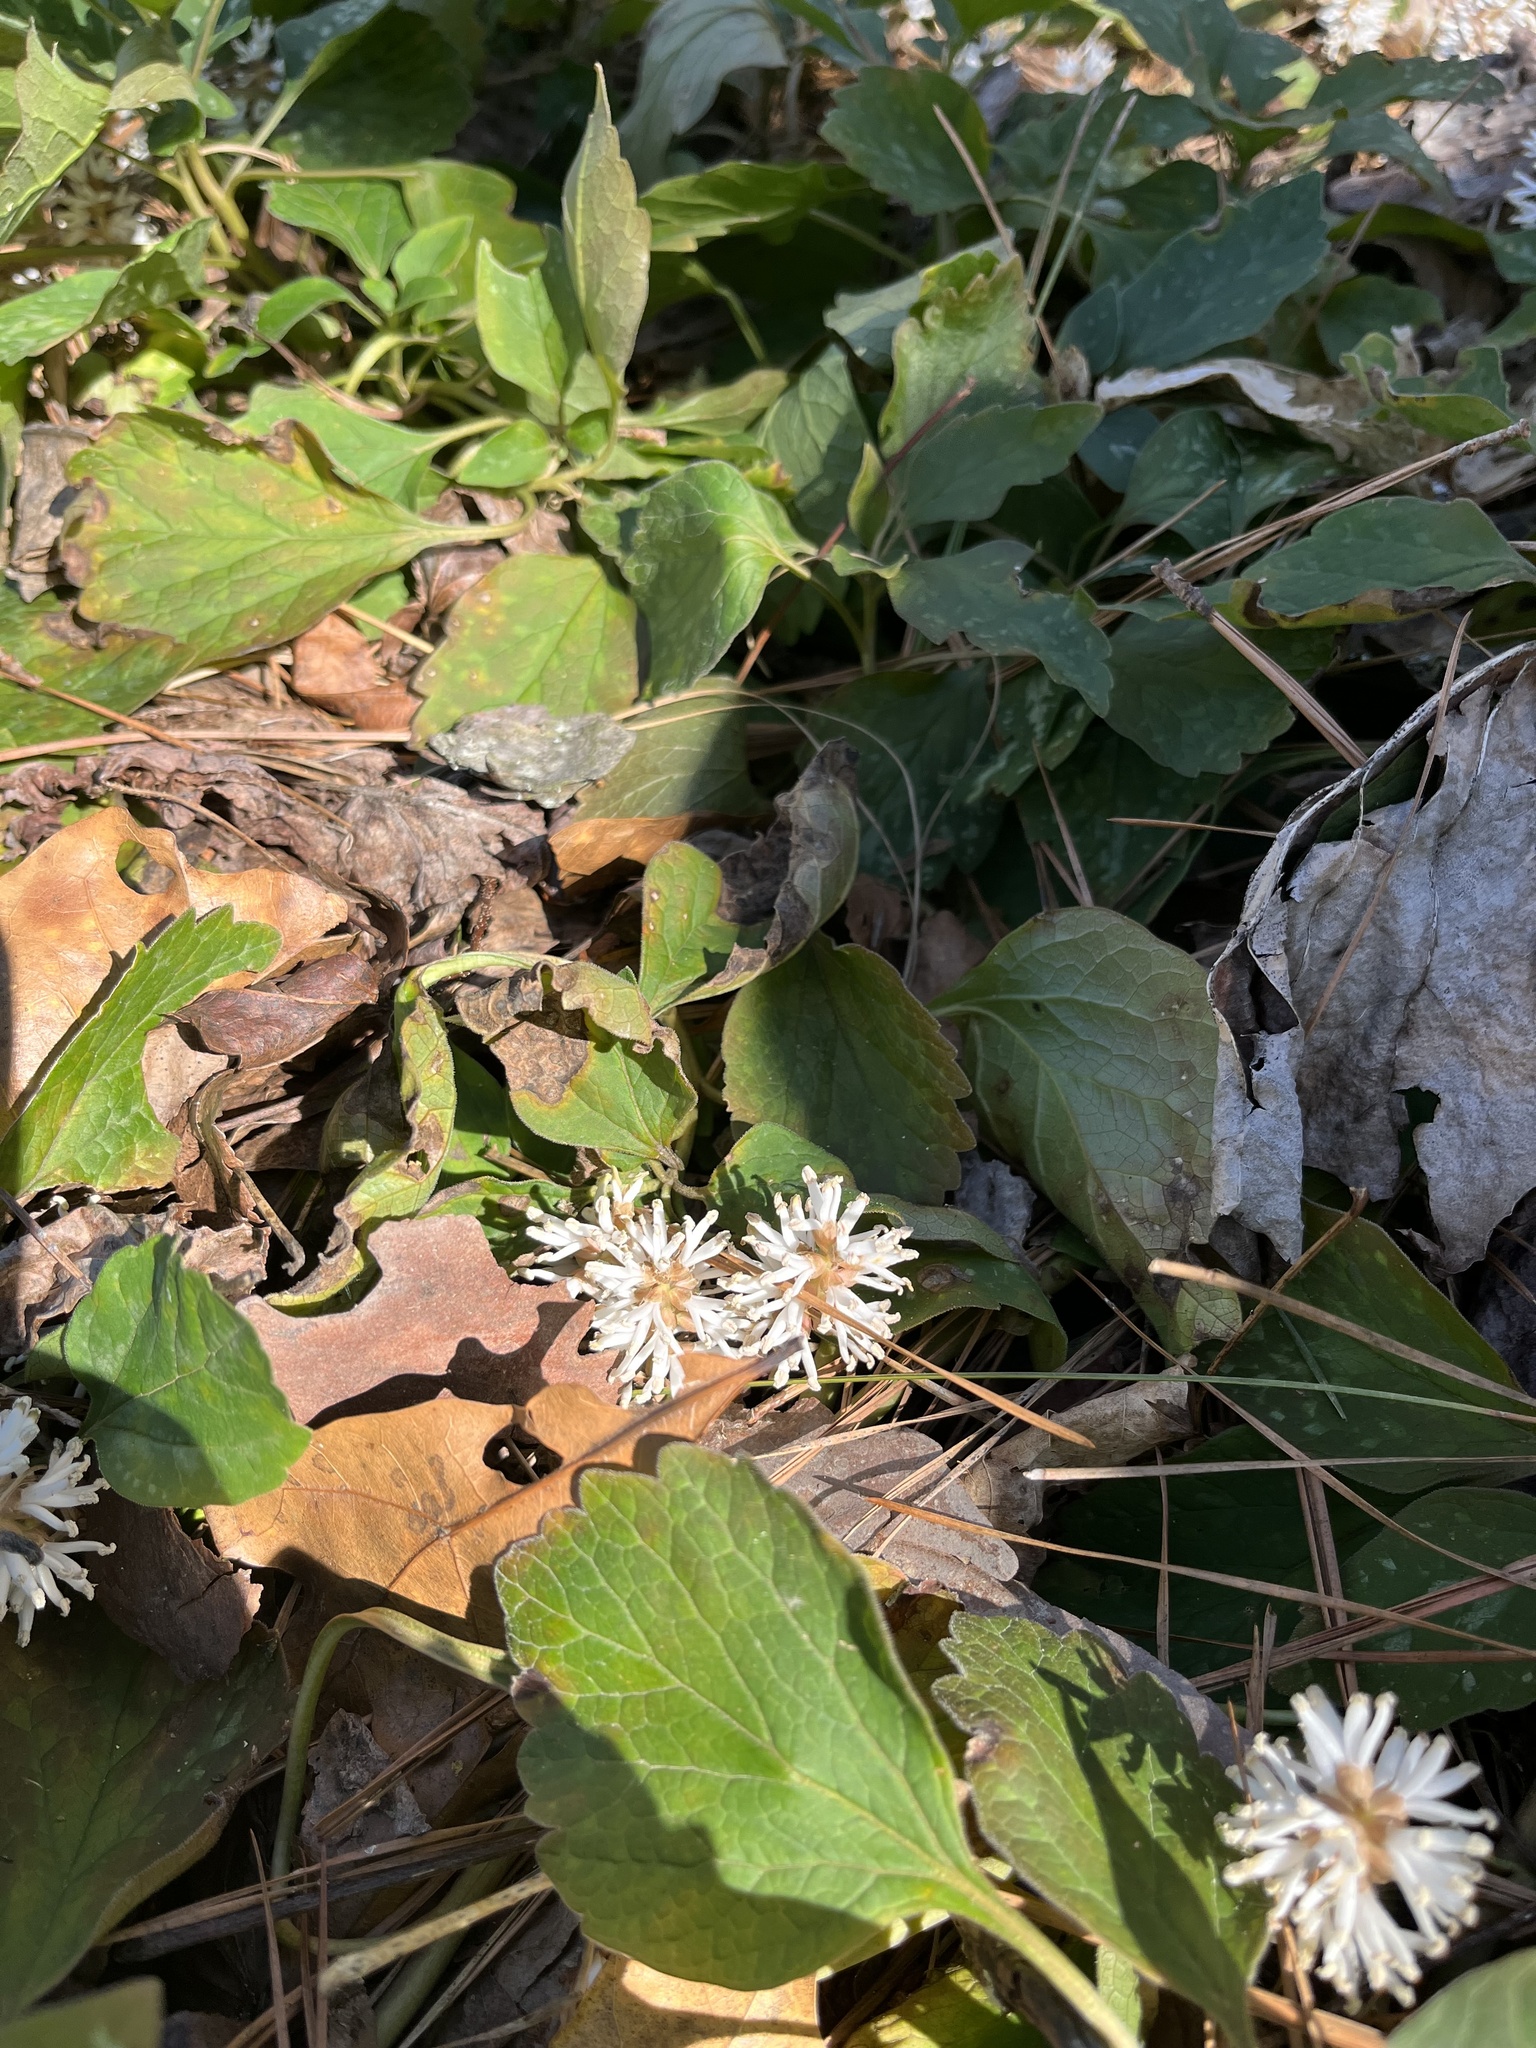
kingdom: Plantae
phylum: Tracheophyta
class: Magnoliopsida
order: Buxales
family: Buxaceae
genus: Pachysandra
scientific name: Pachysandra procumbens
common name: Mountain-spurge
